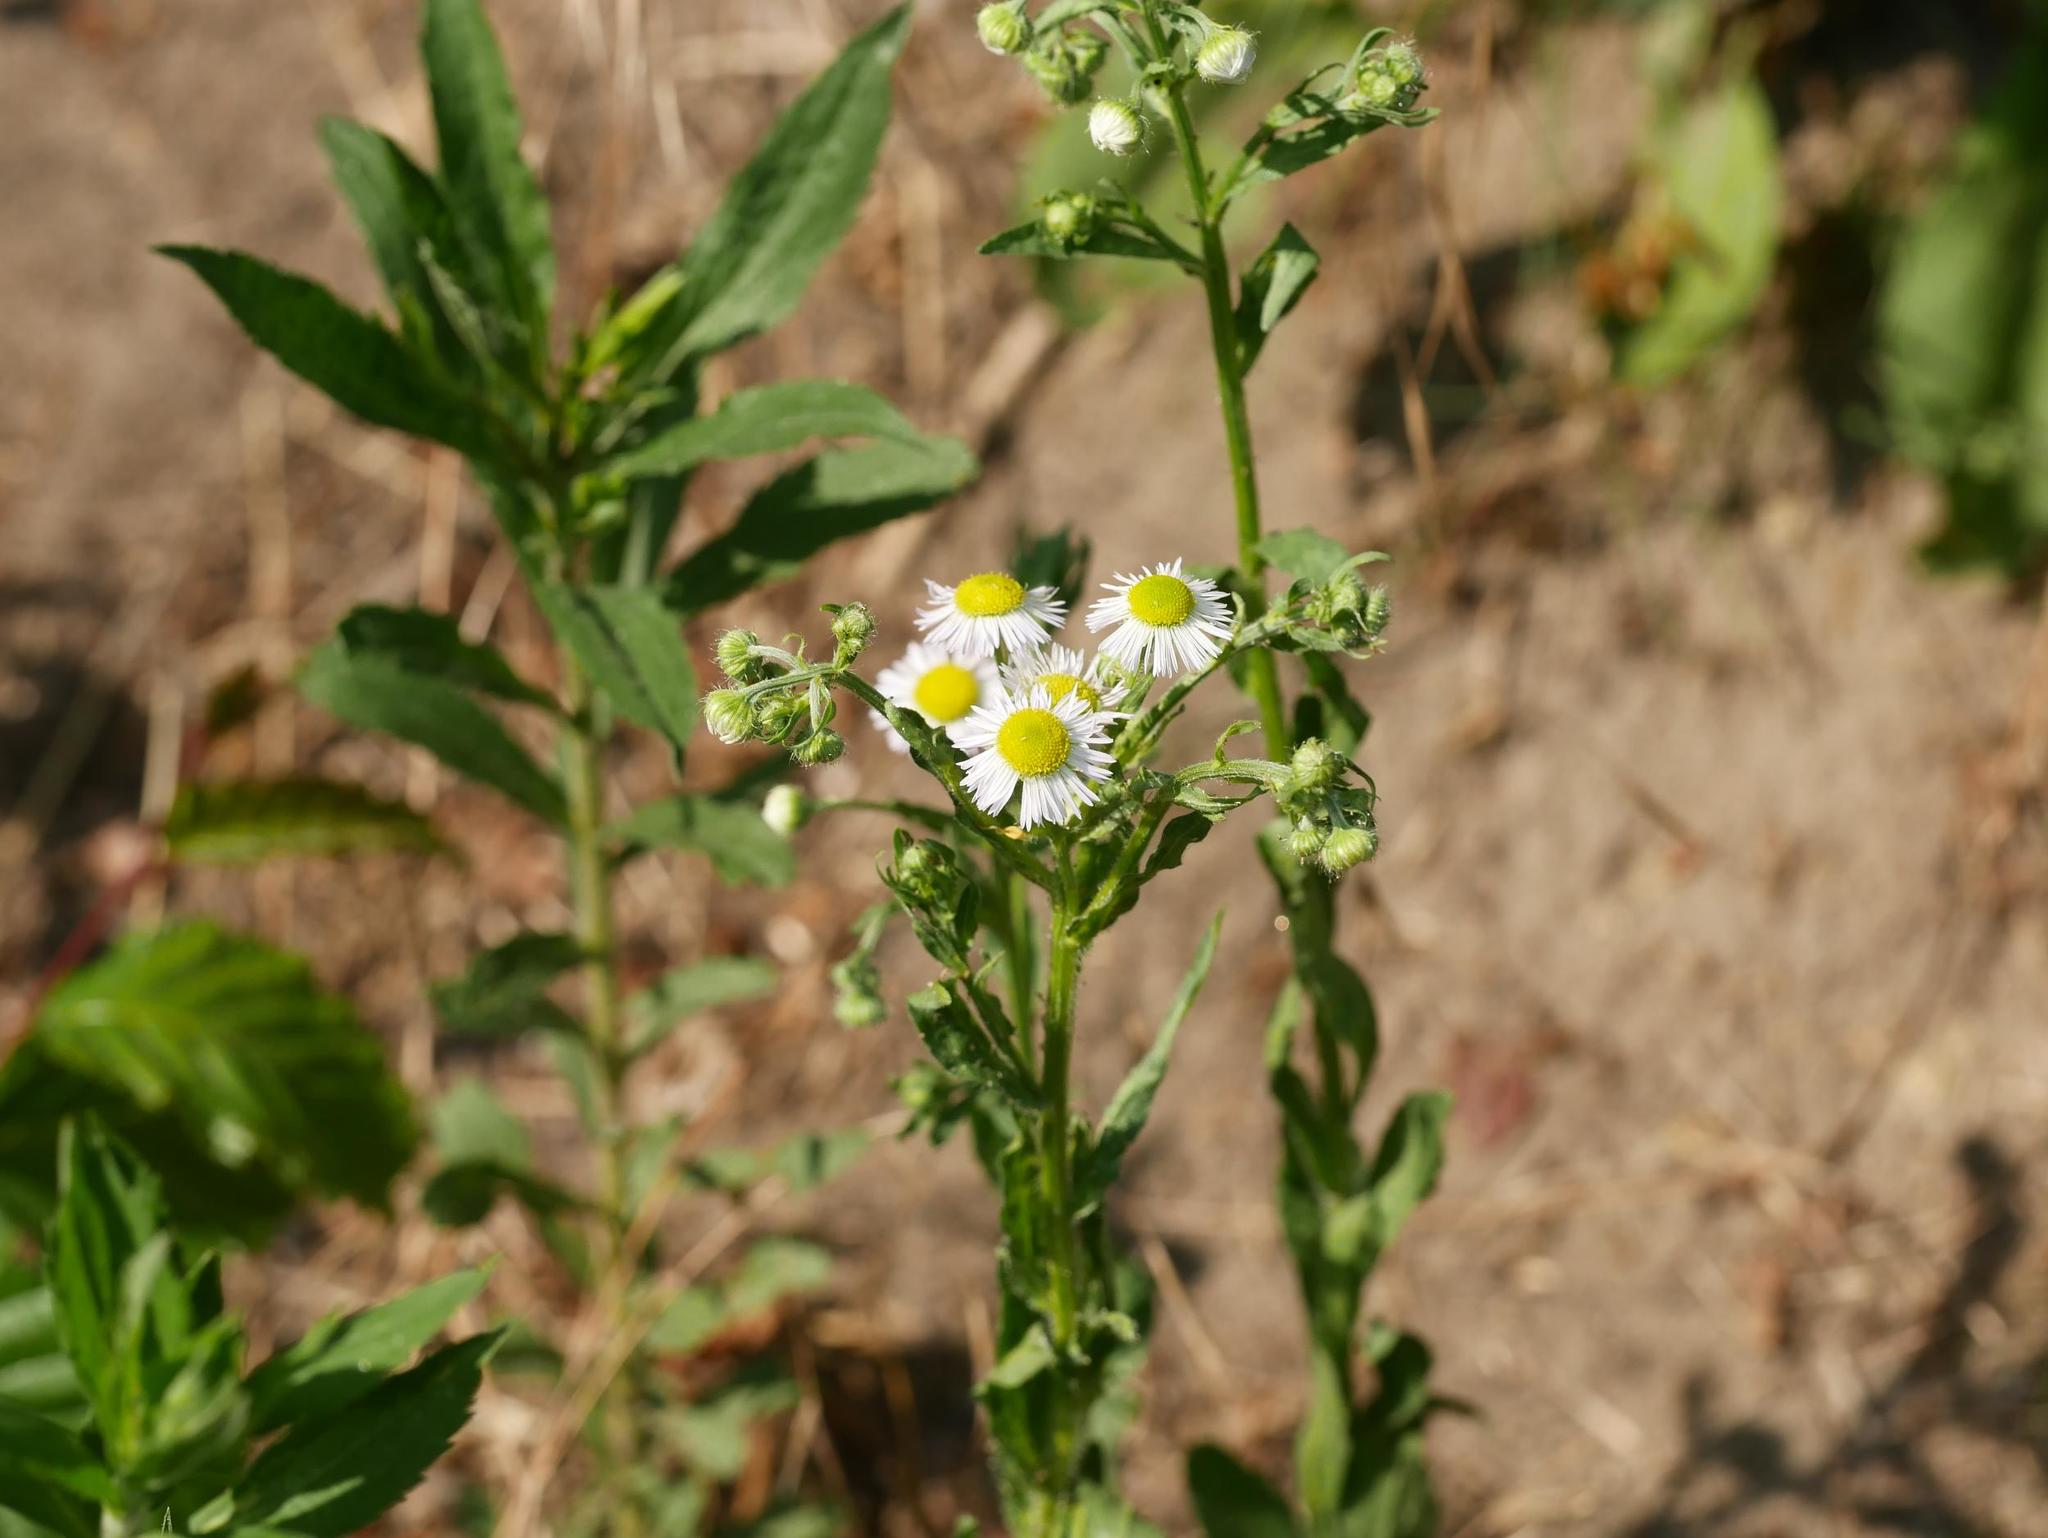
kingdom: Plantae
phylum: Tracheophyta
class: Magnoliopsida
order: Asterales
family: Asteraceae
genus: Erigeron
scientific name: Erigeron annuus
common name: Tall fleabane
